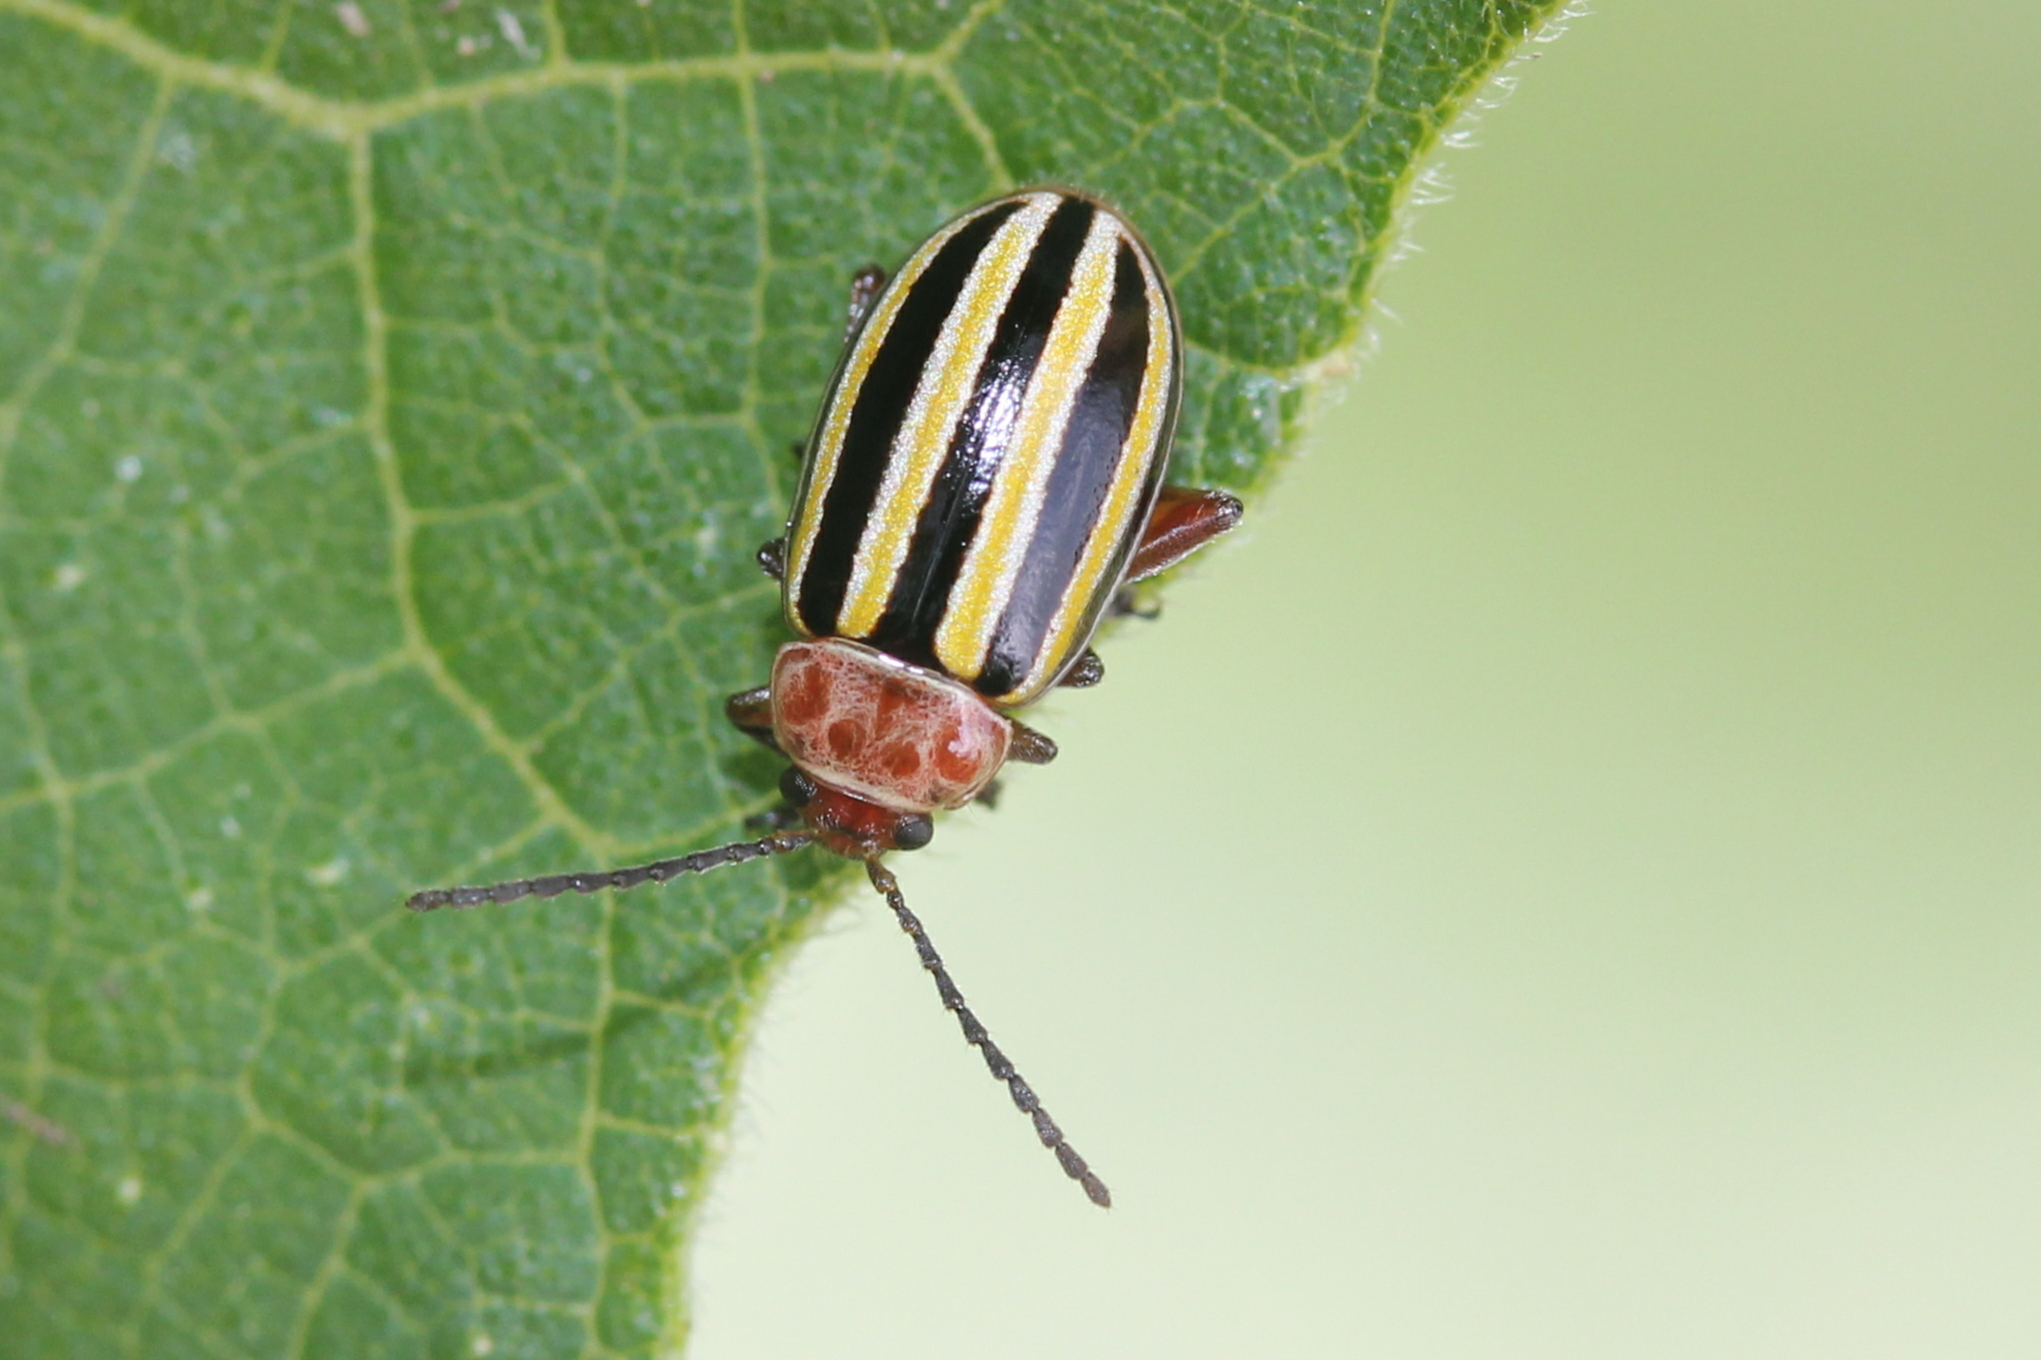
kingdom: Animalia
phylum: Arthropoda
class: Insecta
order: Coleoptera
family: Chrysomelidae
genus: Disonycha
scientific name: Disonycha admirabila
